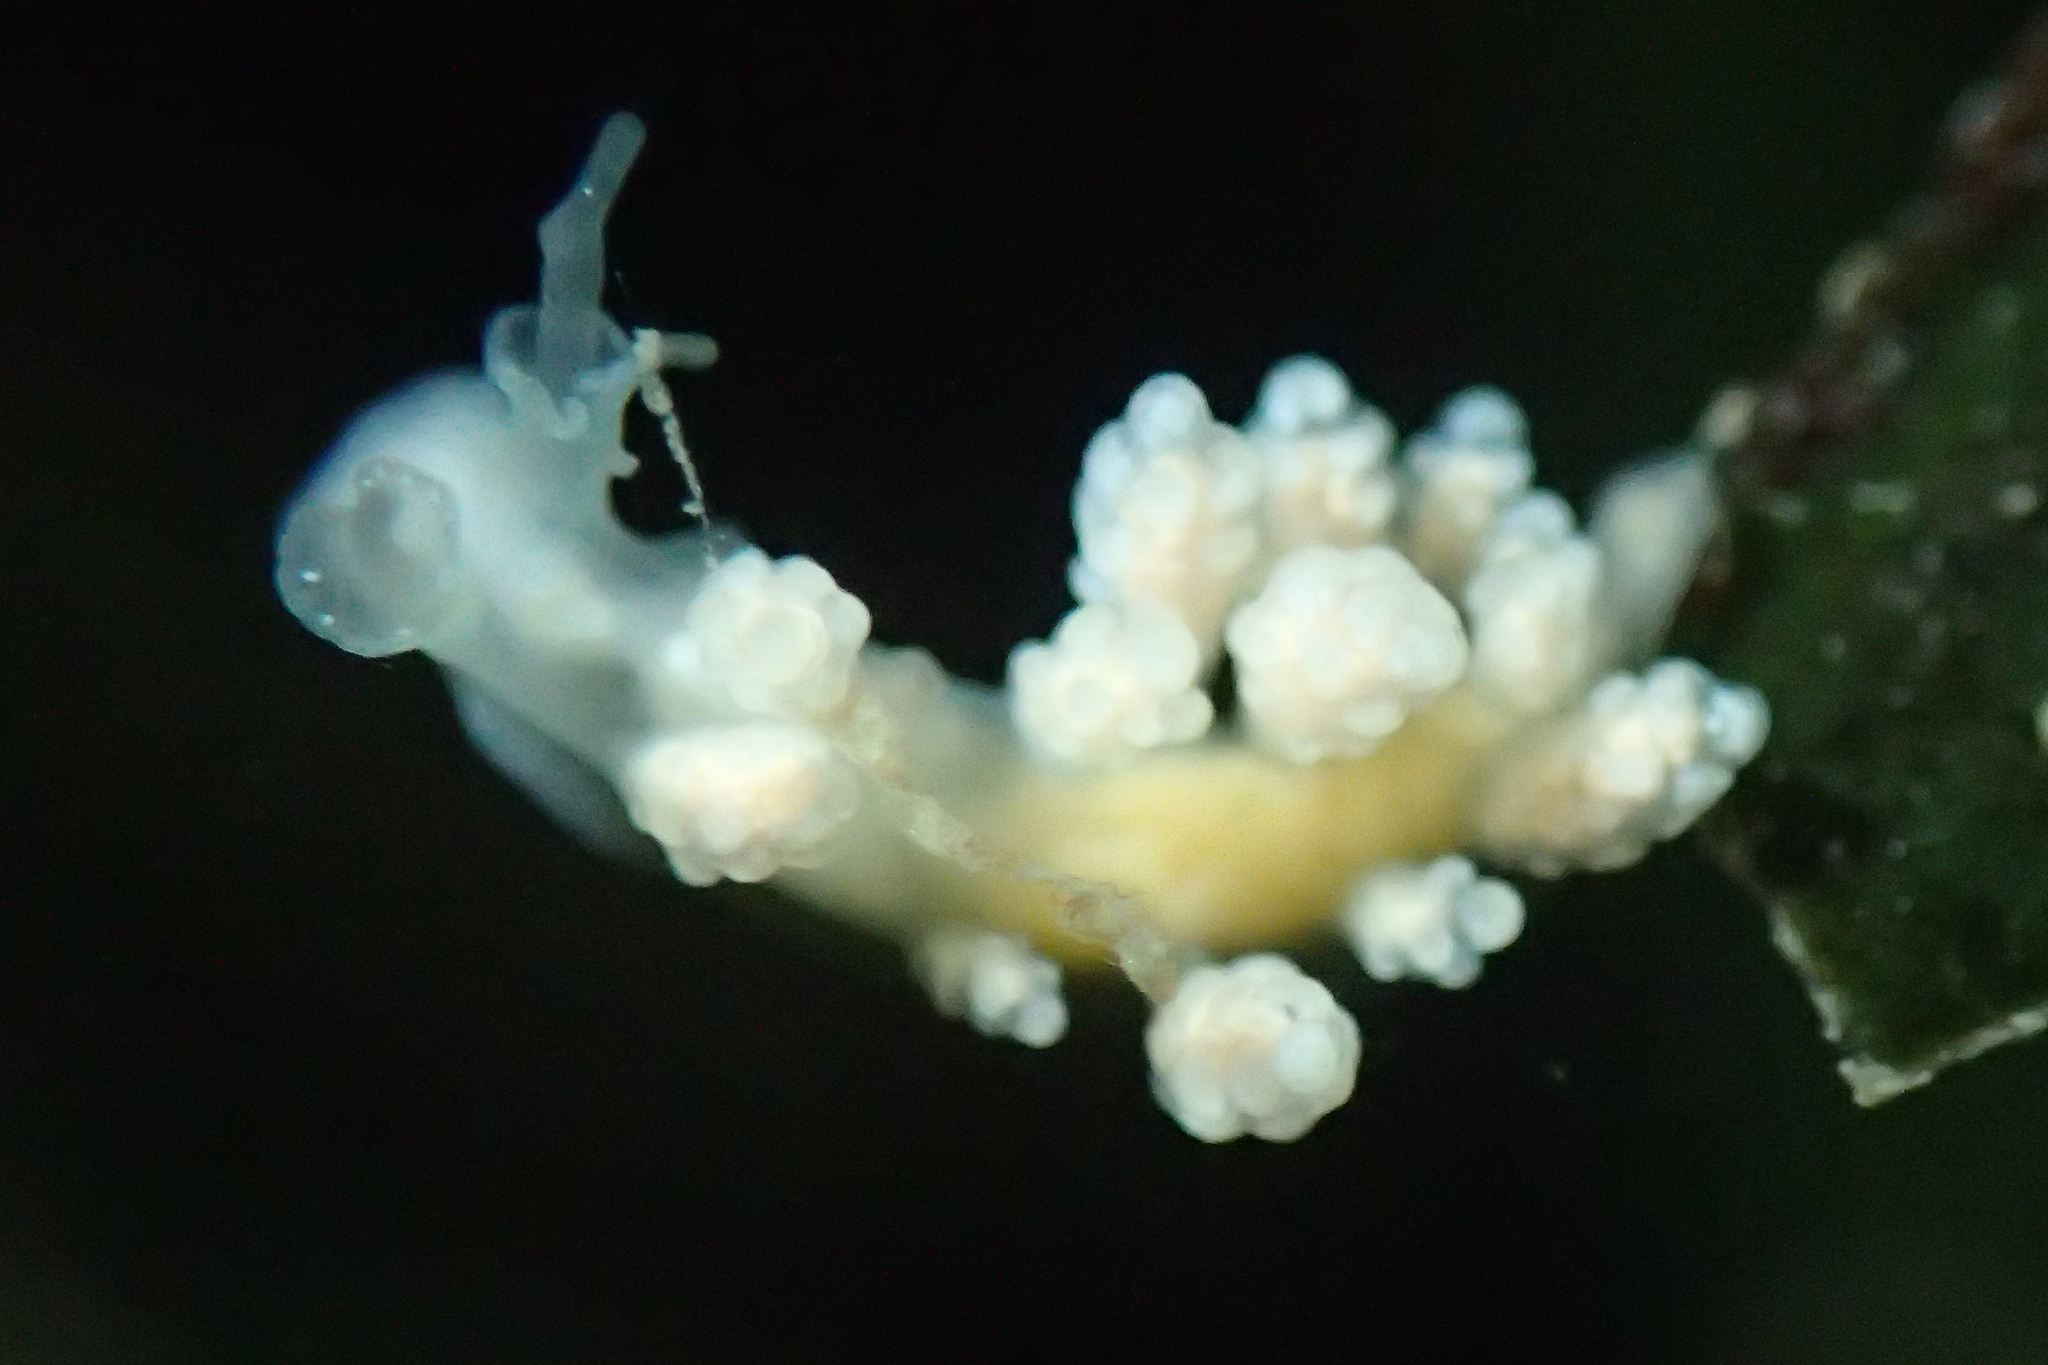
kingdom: Animalia
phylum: Mollusca
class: Gastropoda
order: Nudibranchia
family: Dotidae
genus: Doto
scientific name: Doto amyra
